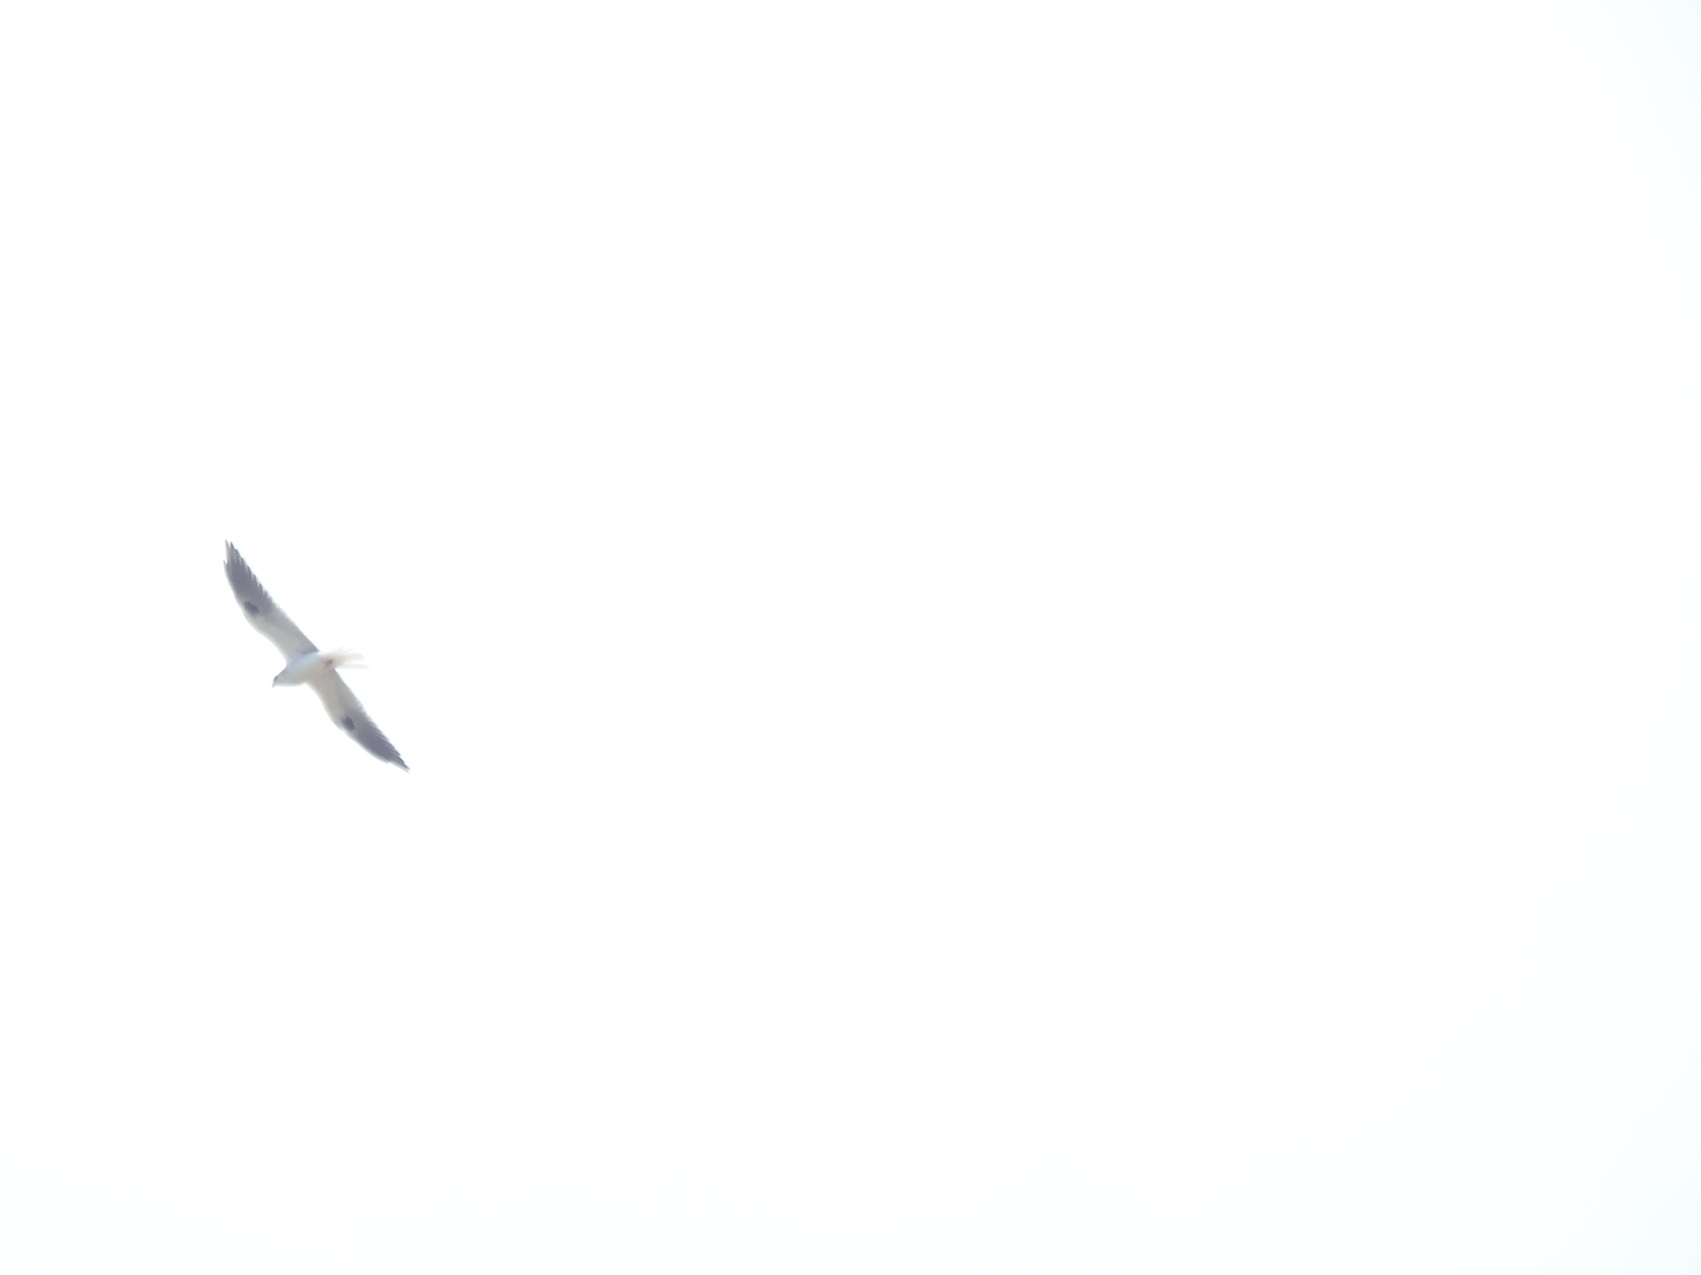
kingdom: Animalia
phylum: Chordata
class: Aves
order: Accipitriformes
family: Accipitridae
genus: Elanus
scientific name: Elanus leucurus
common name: White-tailed kite
